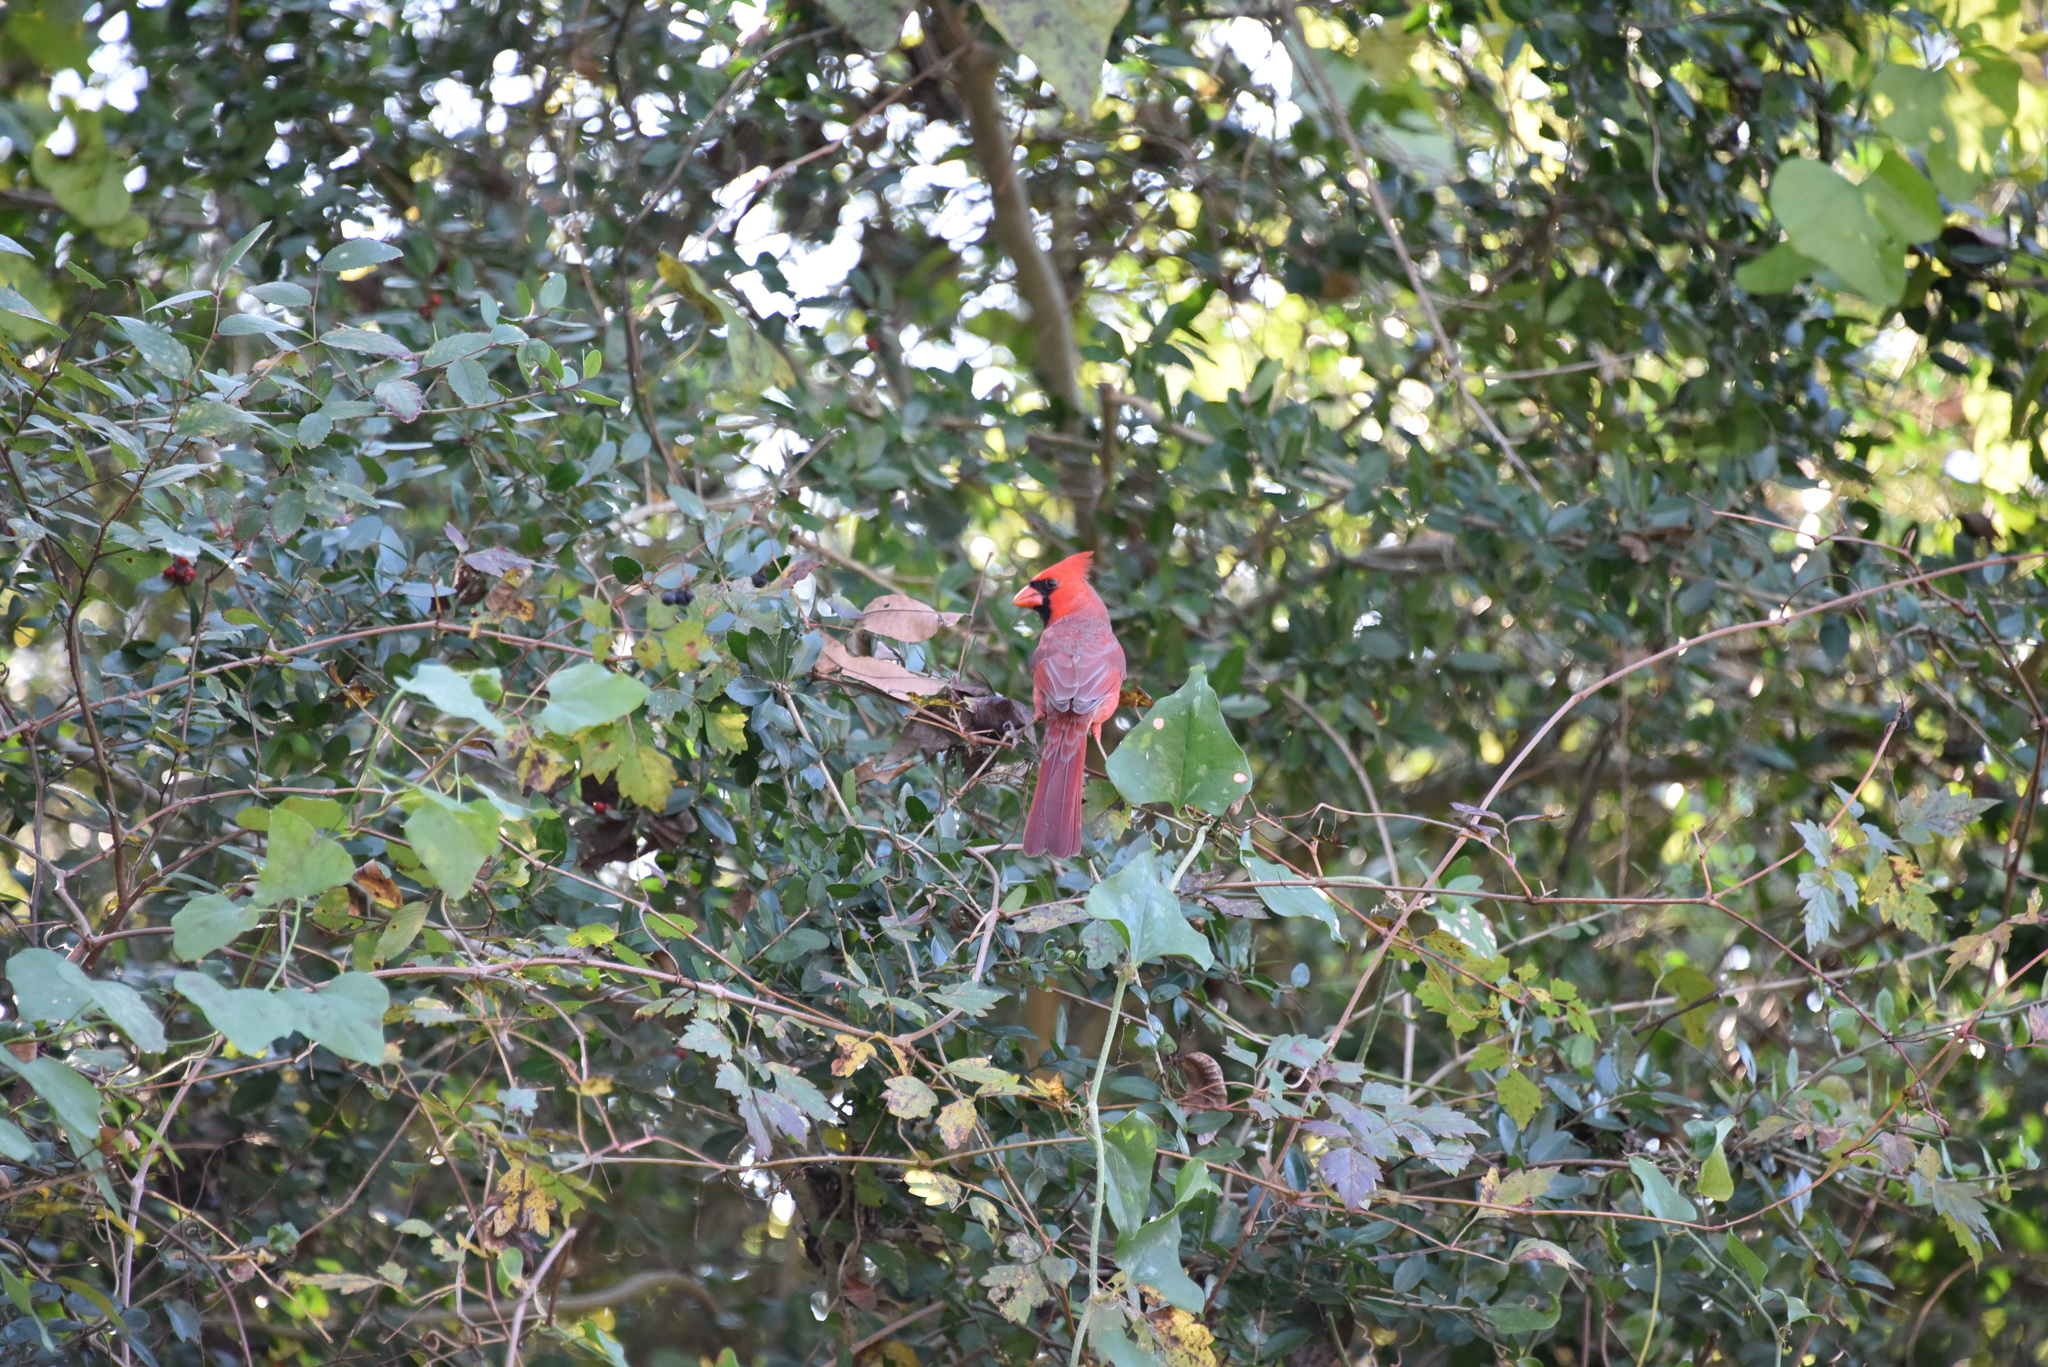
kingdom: Animalia
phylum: Chordata
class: Aves
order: Passeriformes
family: Cardinalidae
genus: Cardinalis
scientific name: Cardinalis cardinalis
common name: Northern cardinal
